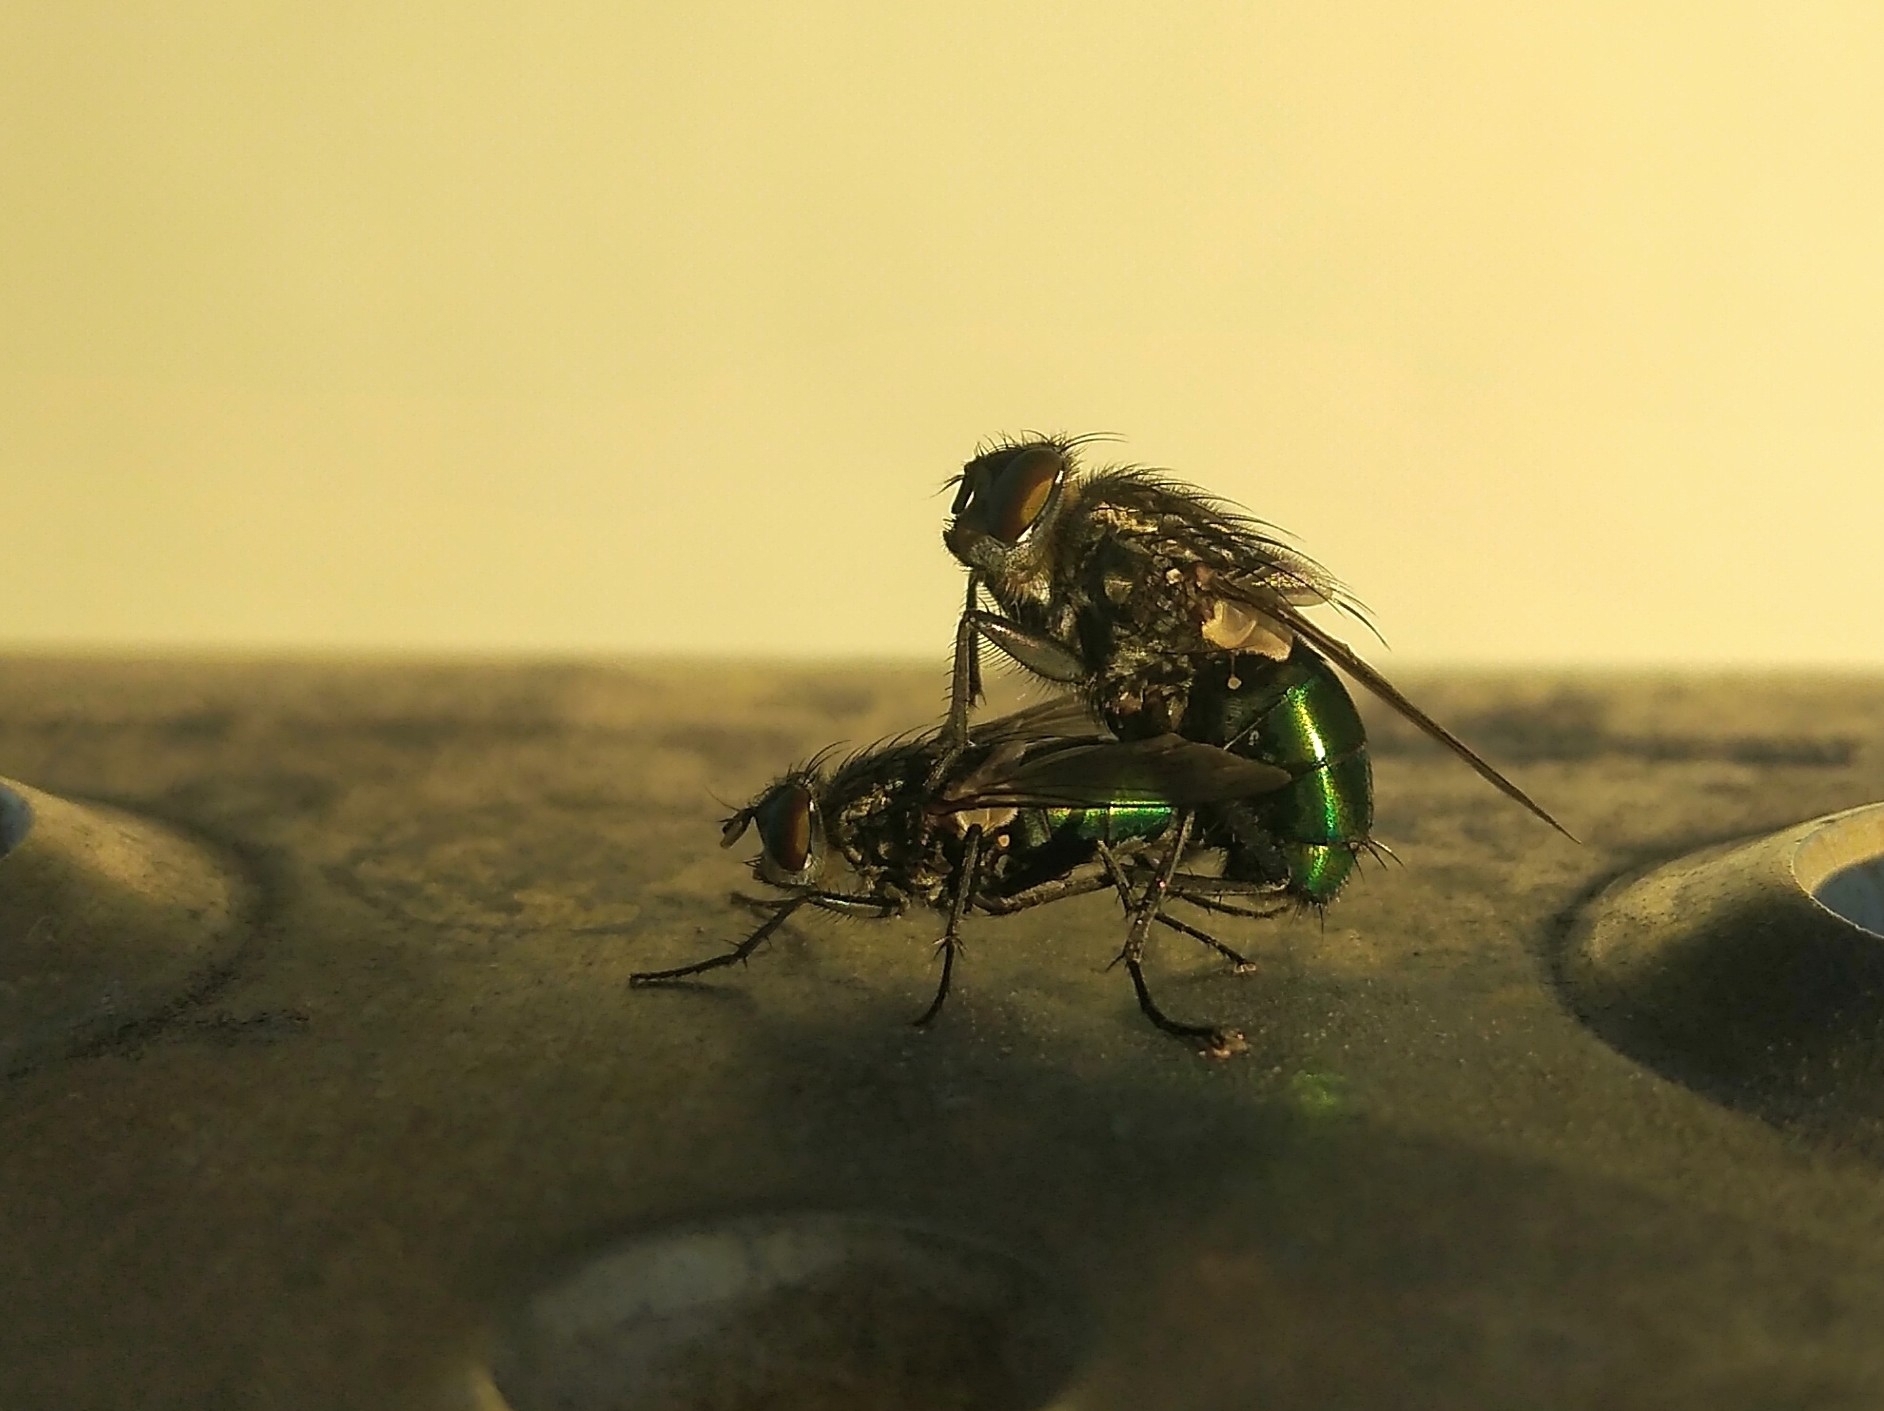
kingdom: Animalia
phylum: Arthropoda
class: Insecta
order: Diptera
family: Calliphoridae
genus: Sarconesia
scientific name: Sarconesia chlorogaster
